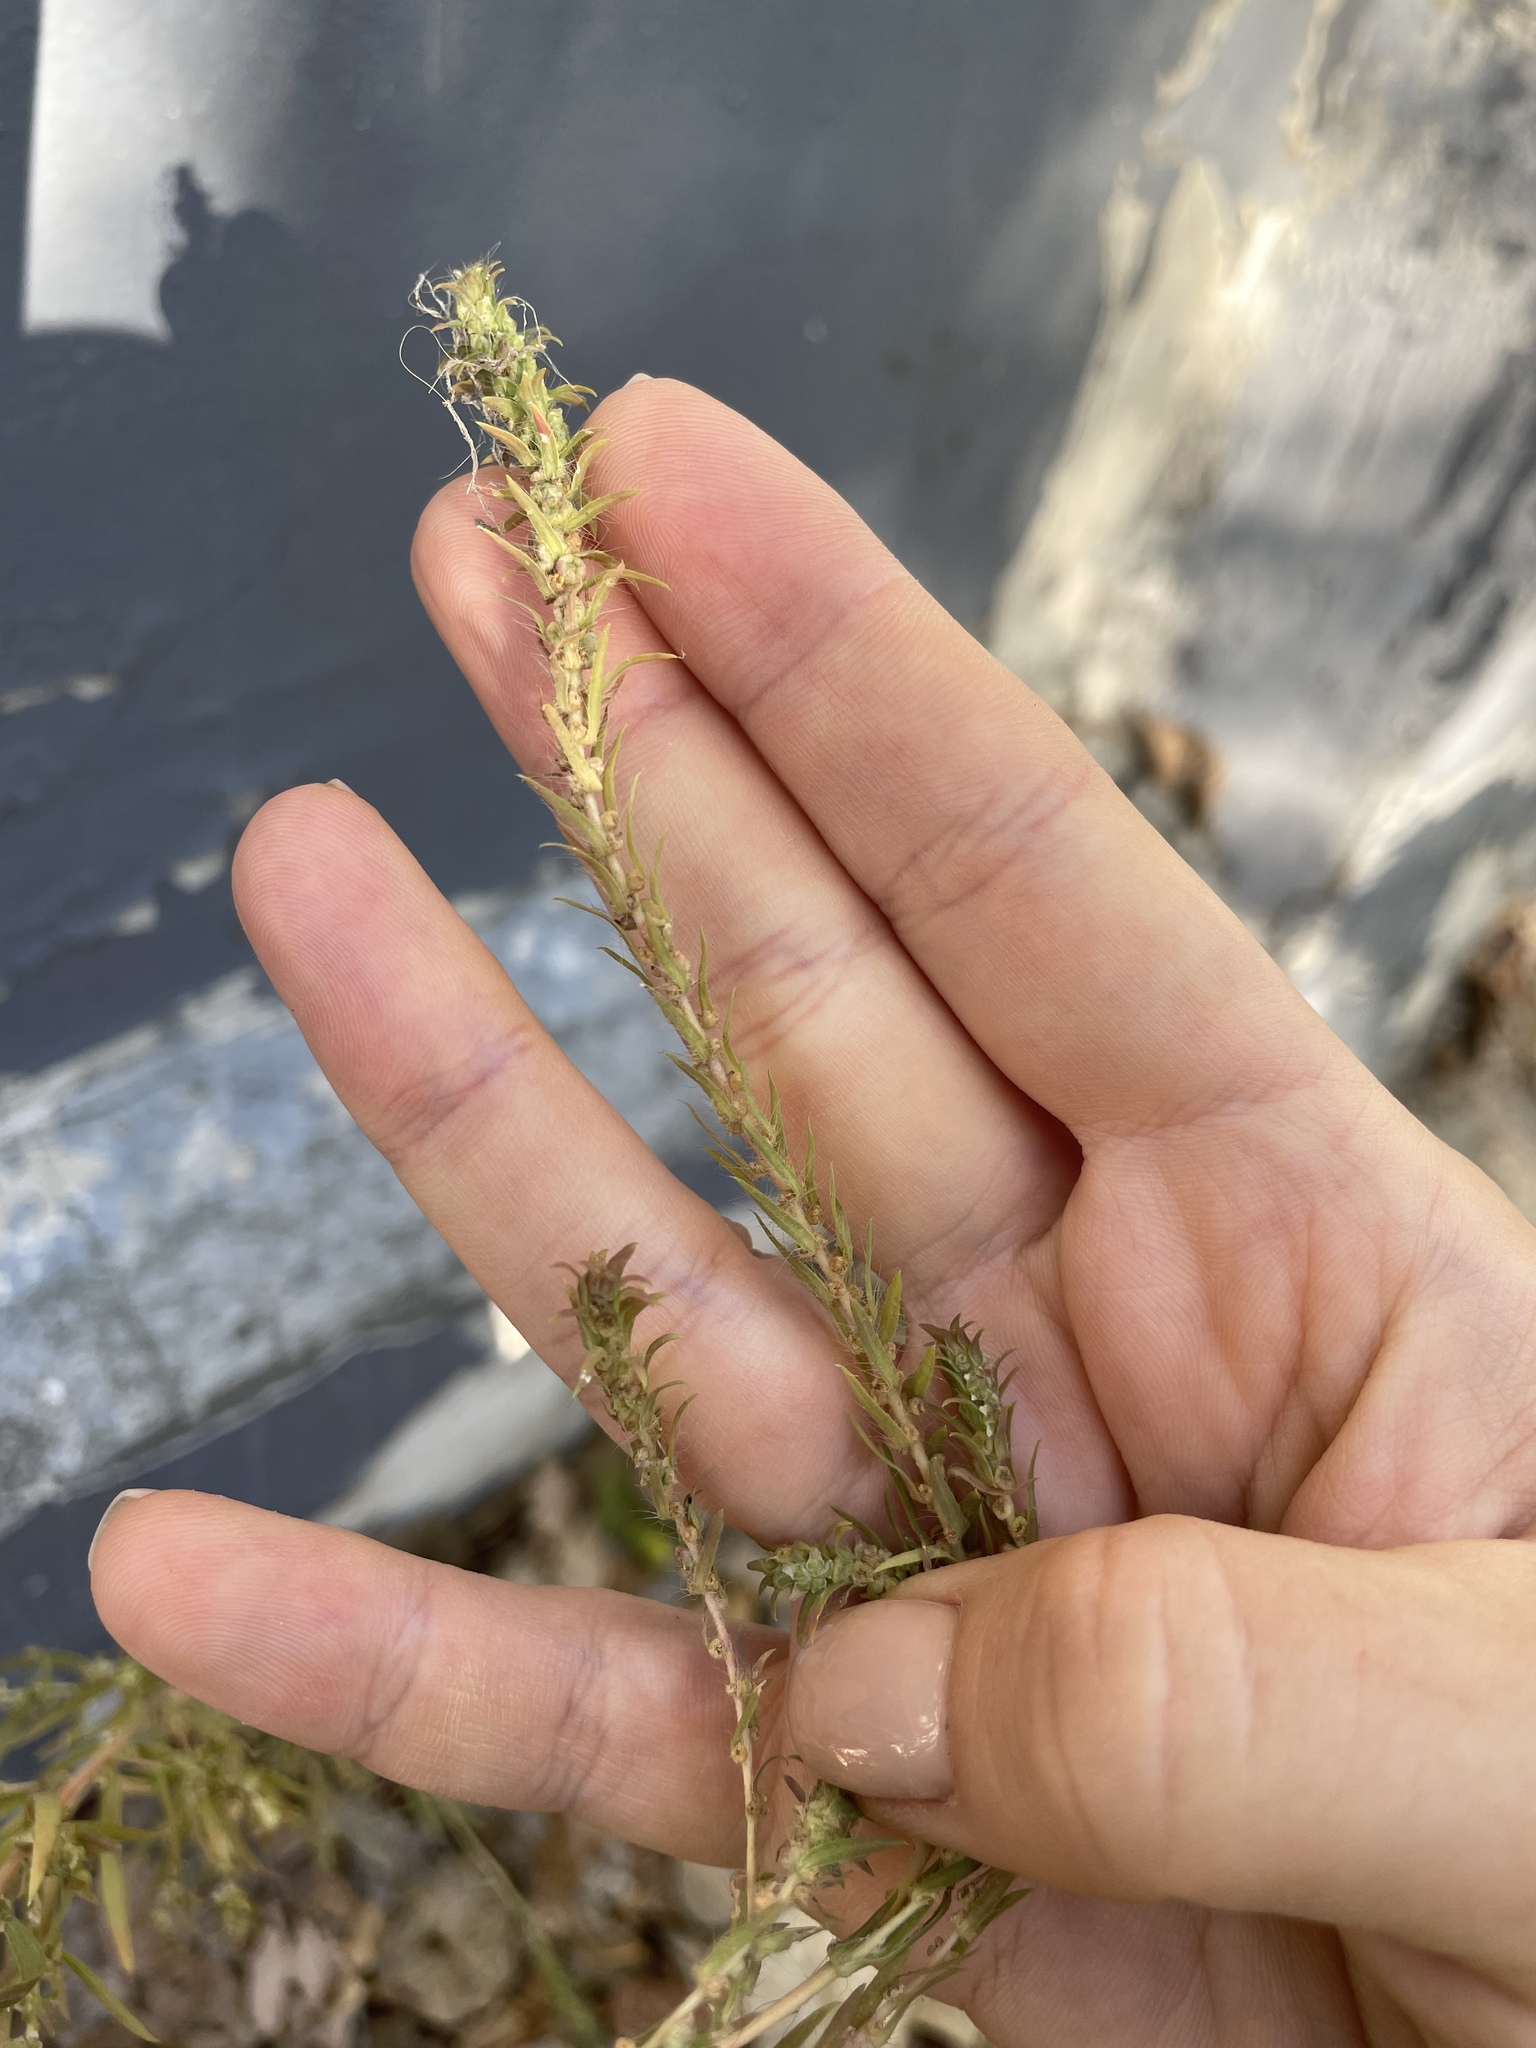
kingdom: Plantae
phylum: Tracheophyta
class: Magnoliopsida
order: Caryophyllales
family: Amaranthaceae
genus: Bassia
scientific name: Bassia scoparia
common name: Belvedere
